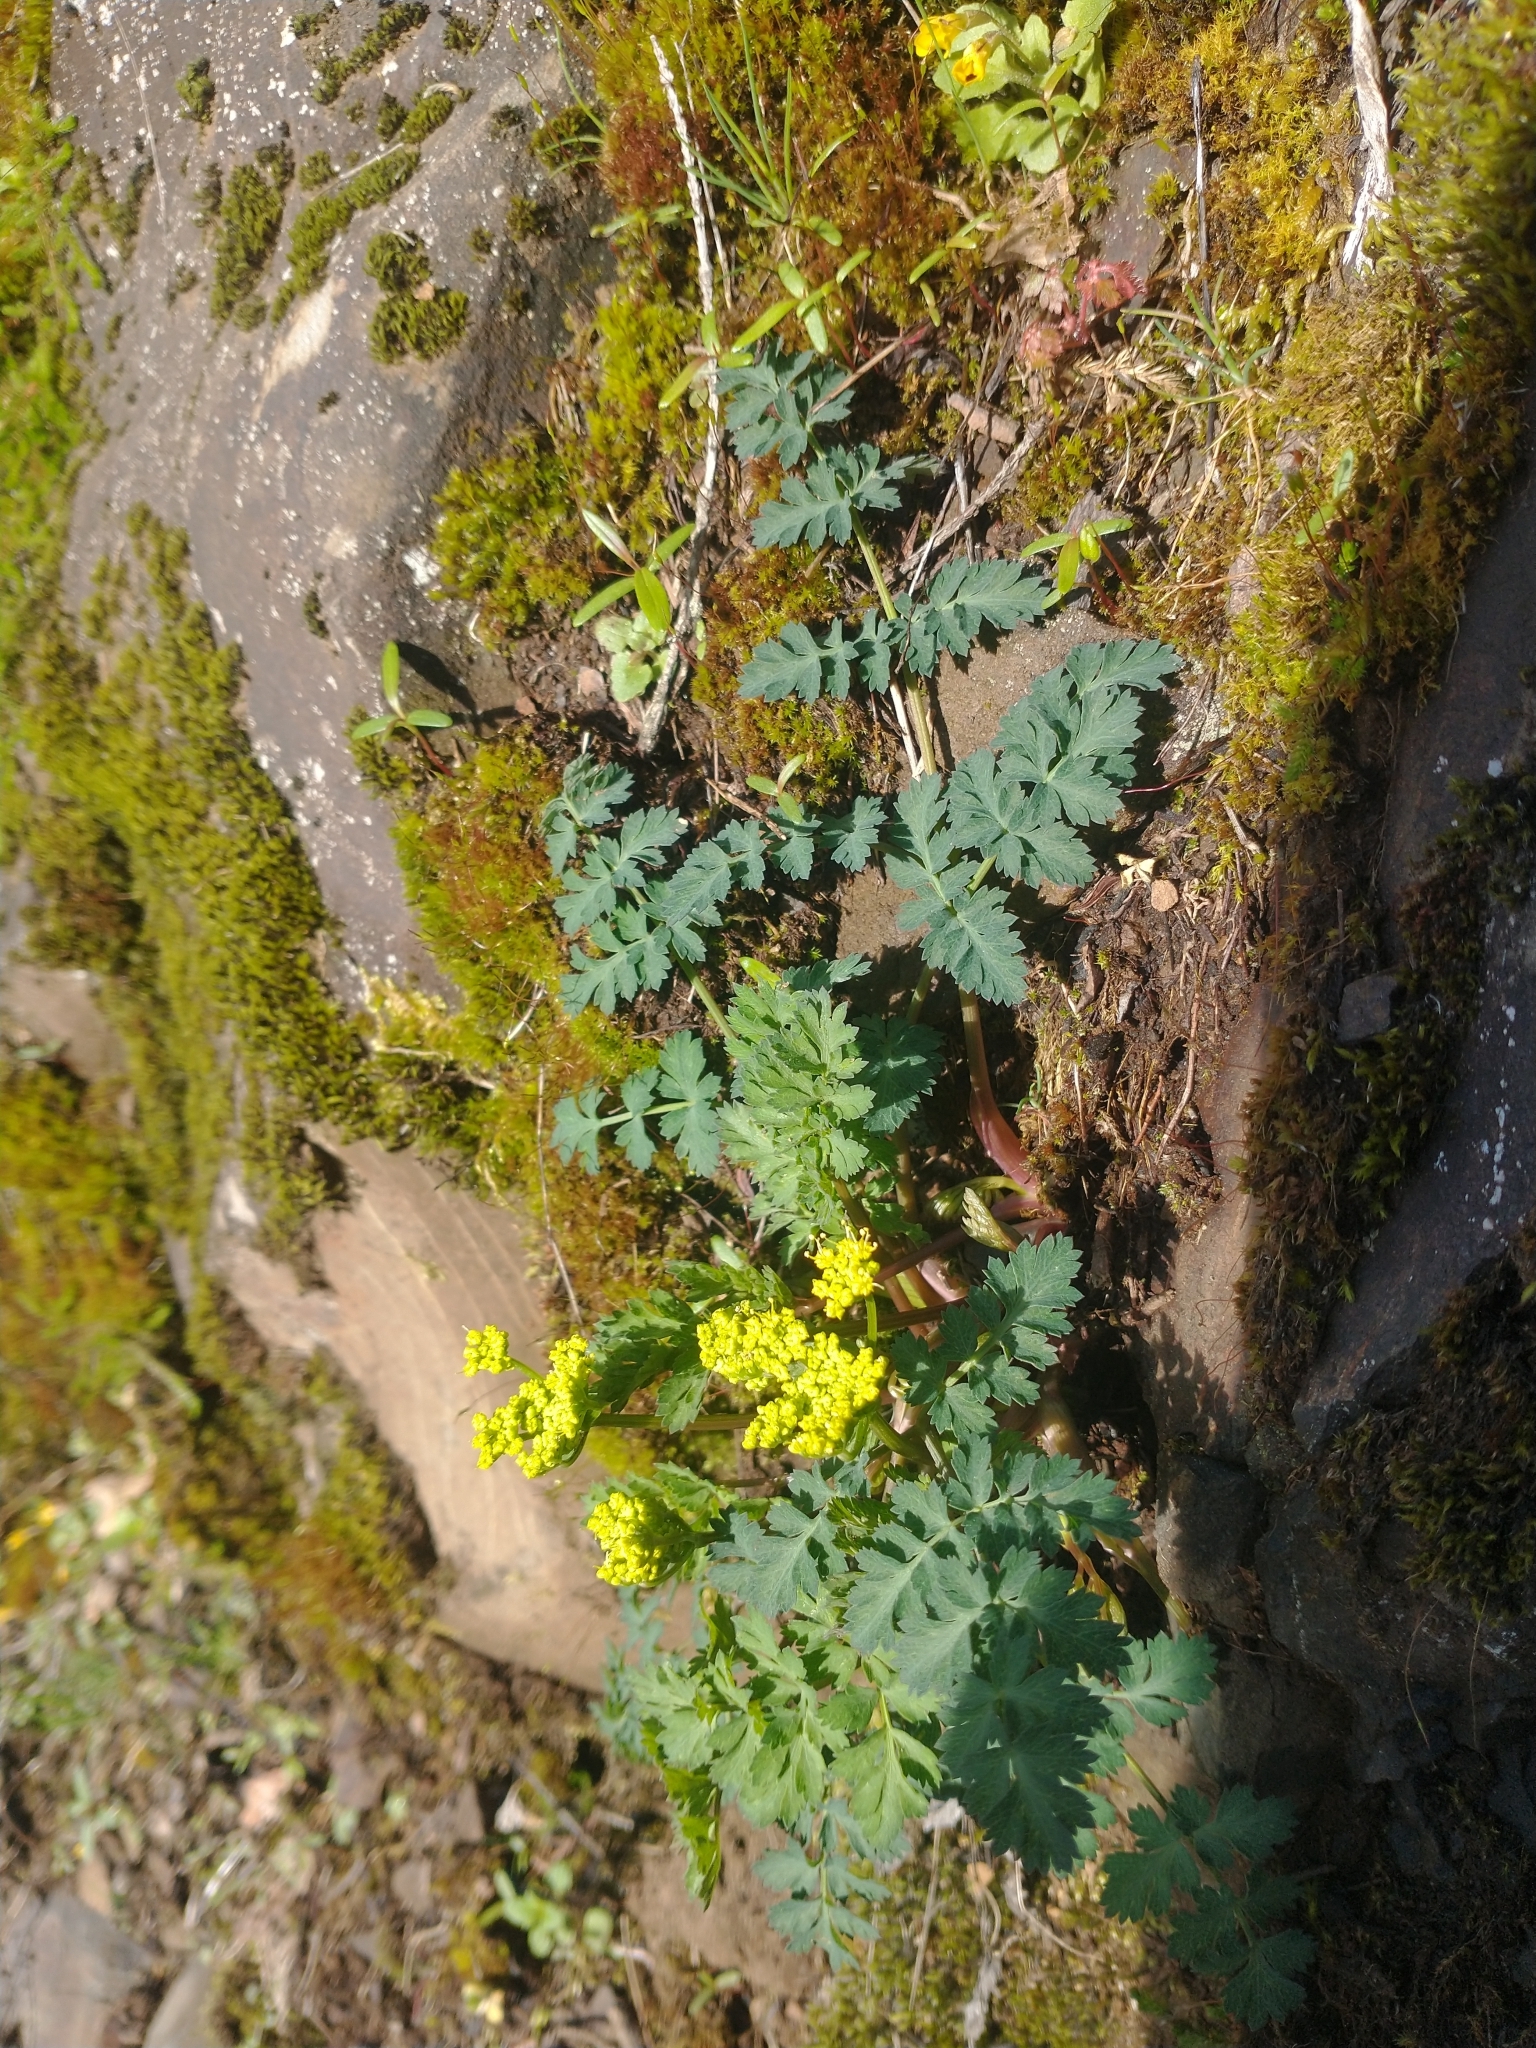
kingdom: Plantae
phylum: Tracheophyta
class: Magnoliopsida
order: Apiales
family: Apiaceae
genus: Lomatium
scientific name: Lomatium martindalei
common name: Cascade desert-parsley
